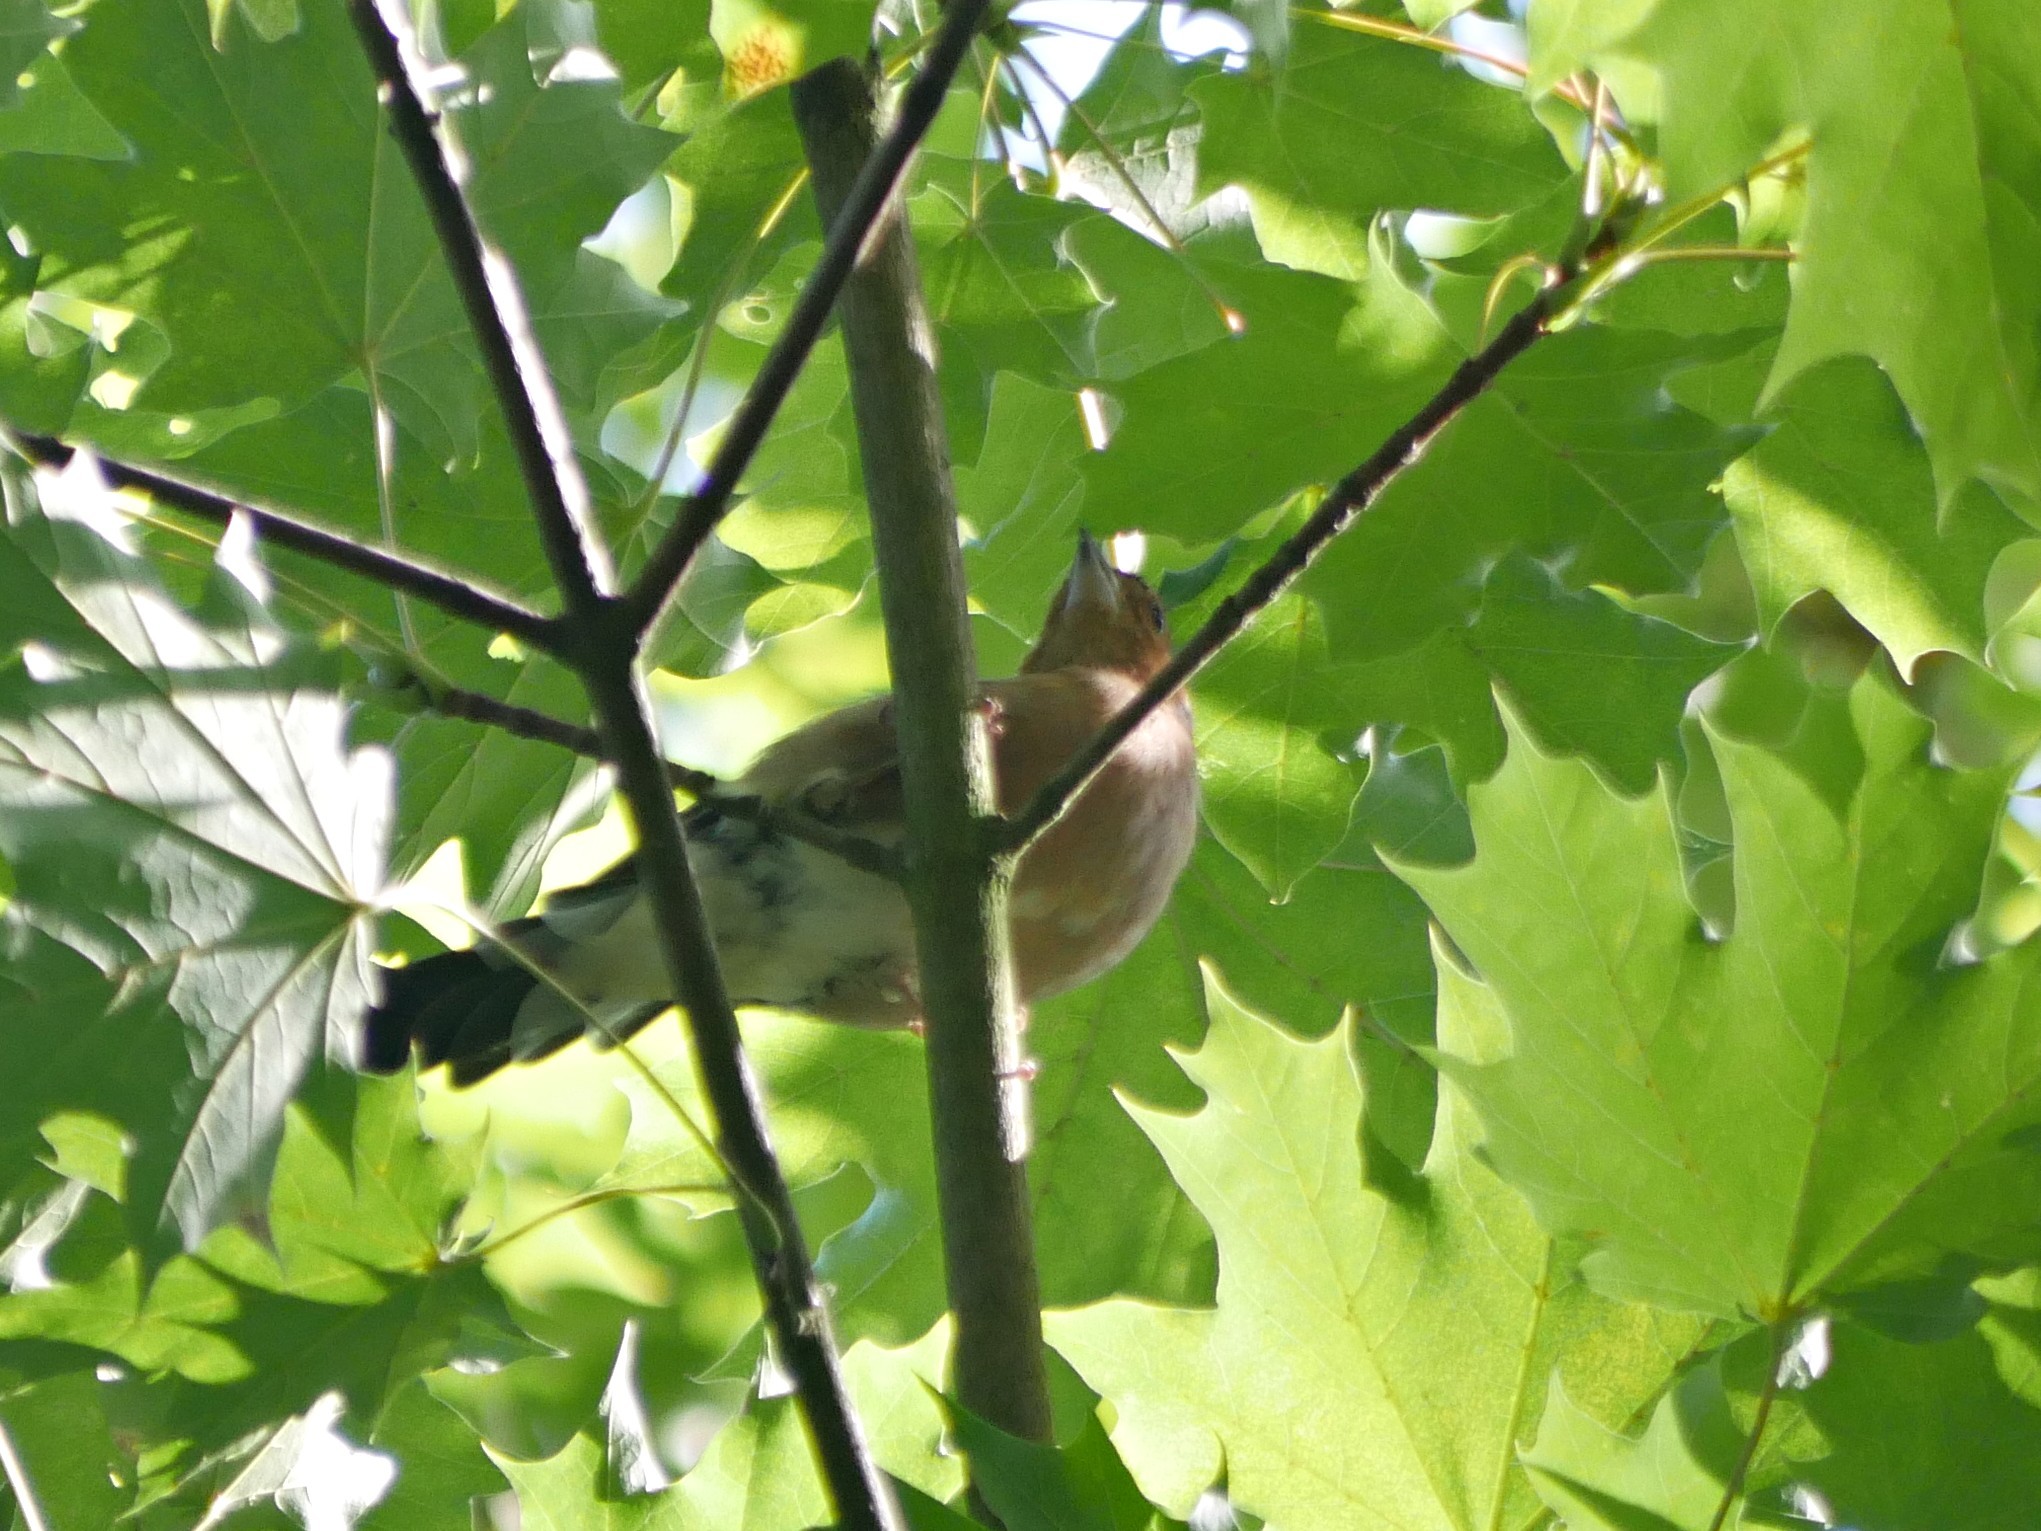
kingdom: Animalia
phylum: Chordata
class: Aves
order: Passeriformes
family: Fringillidae
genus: Fringilla
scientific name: Fringilla coelebs
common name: Common chaffinch
